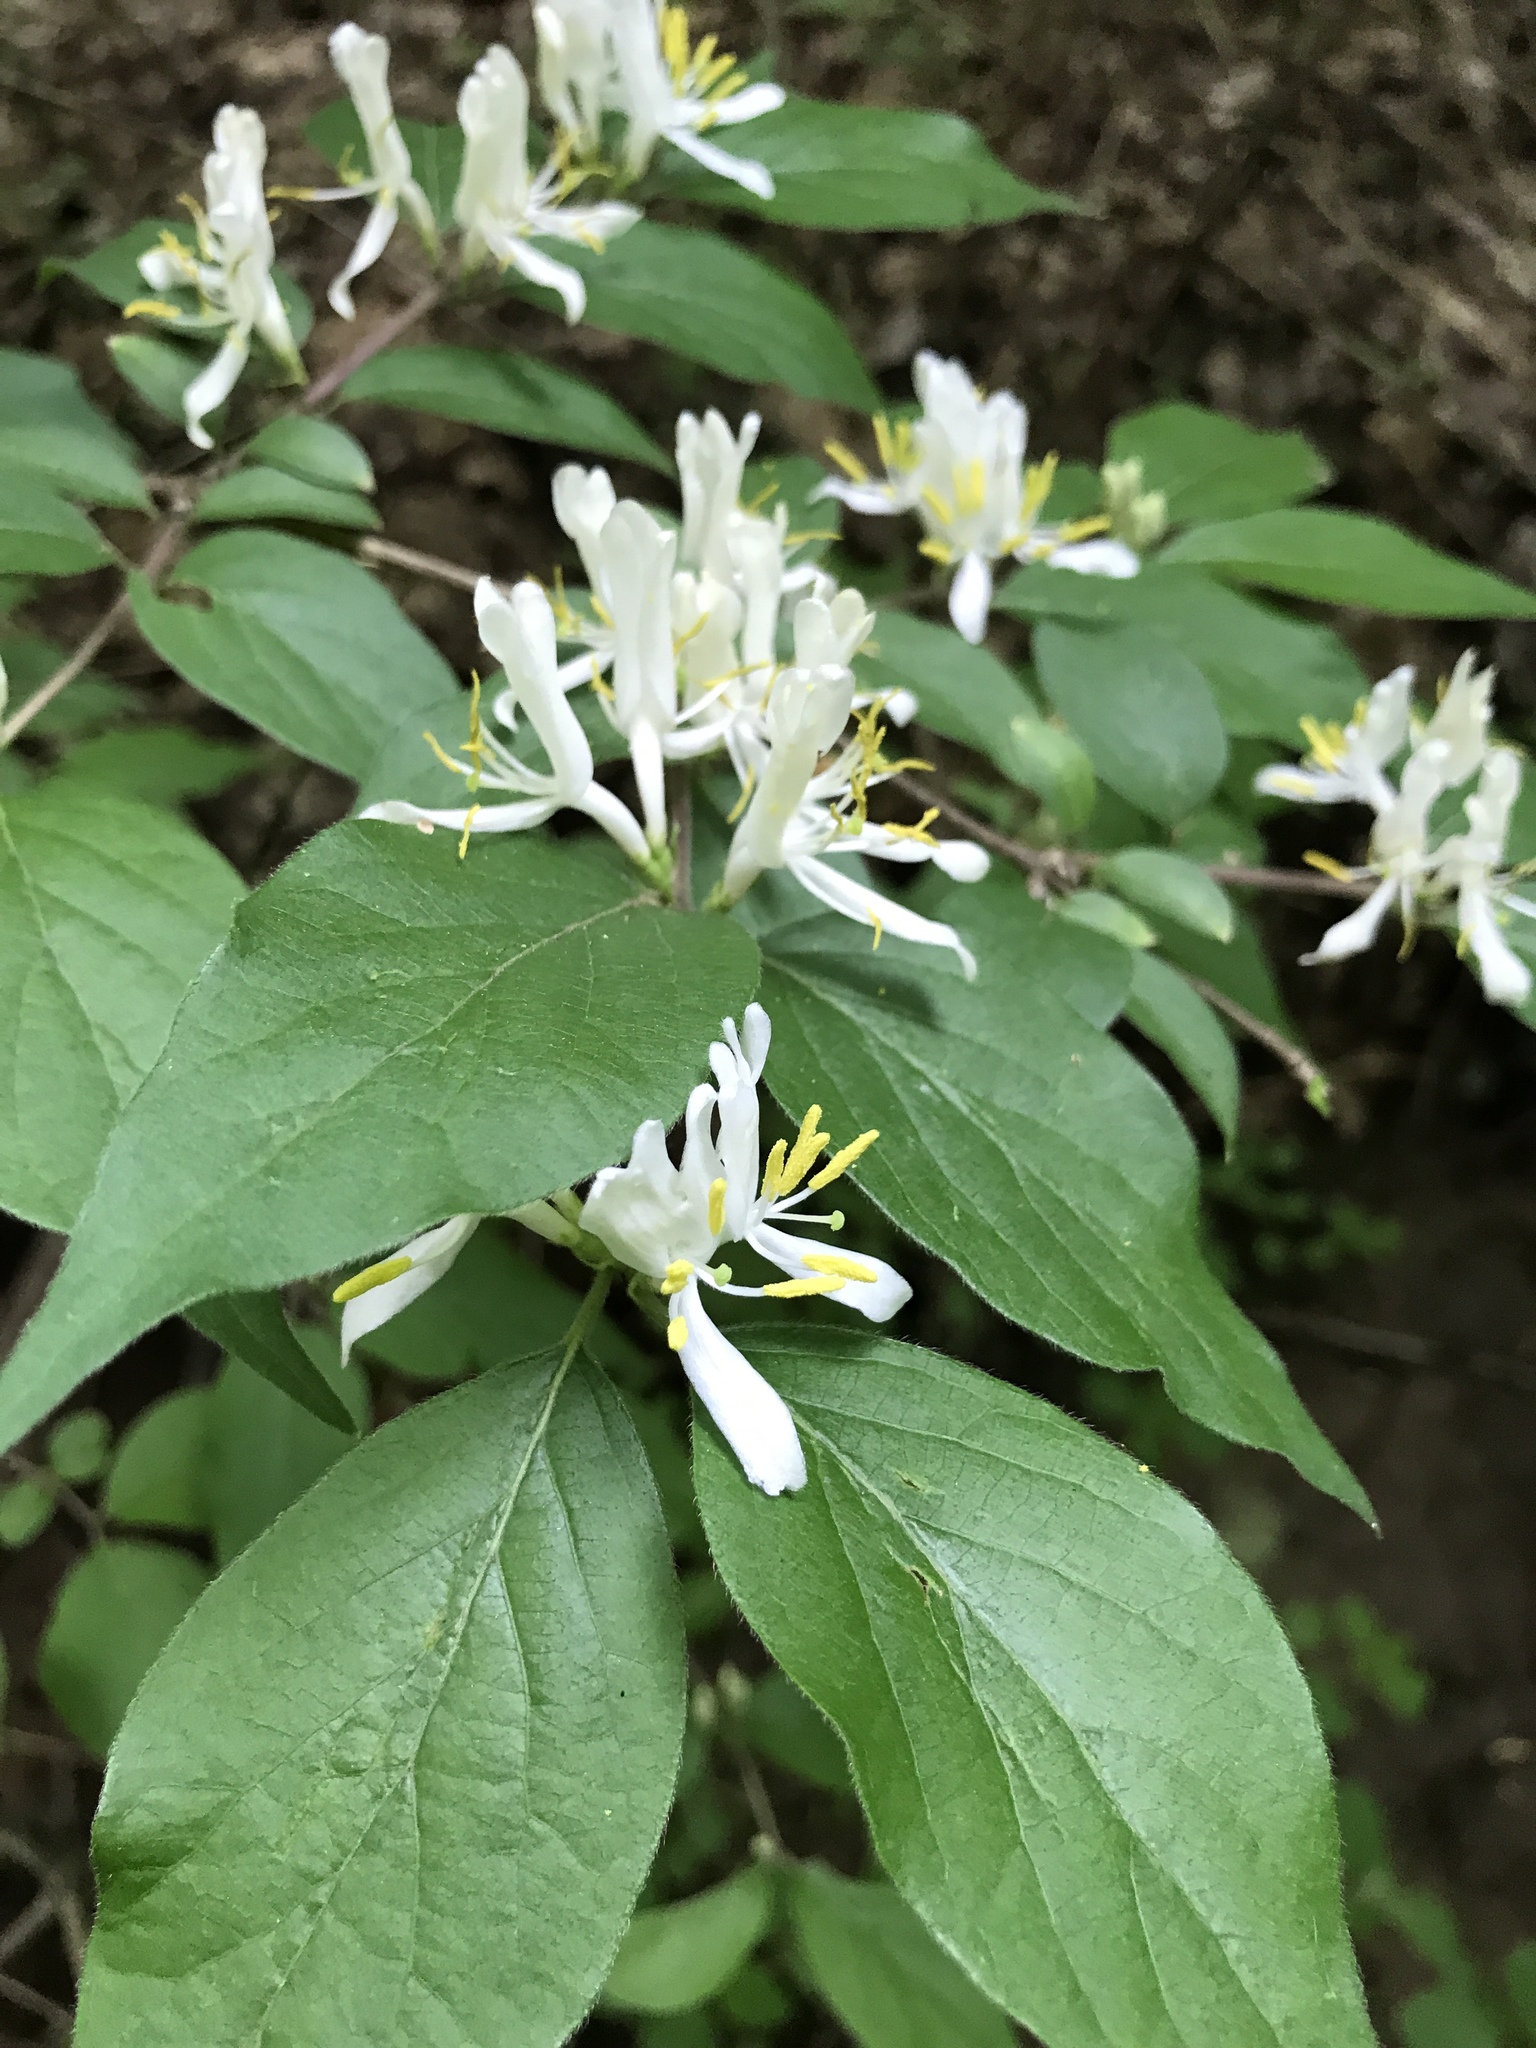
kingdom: Plantae
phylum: Tracheophyta
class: Magnoliopsida
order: Dipsacales
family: Caprifoliaceae
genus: Lonicera
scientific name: Lonicera maackii
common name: Amur honeysuckle
